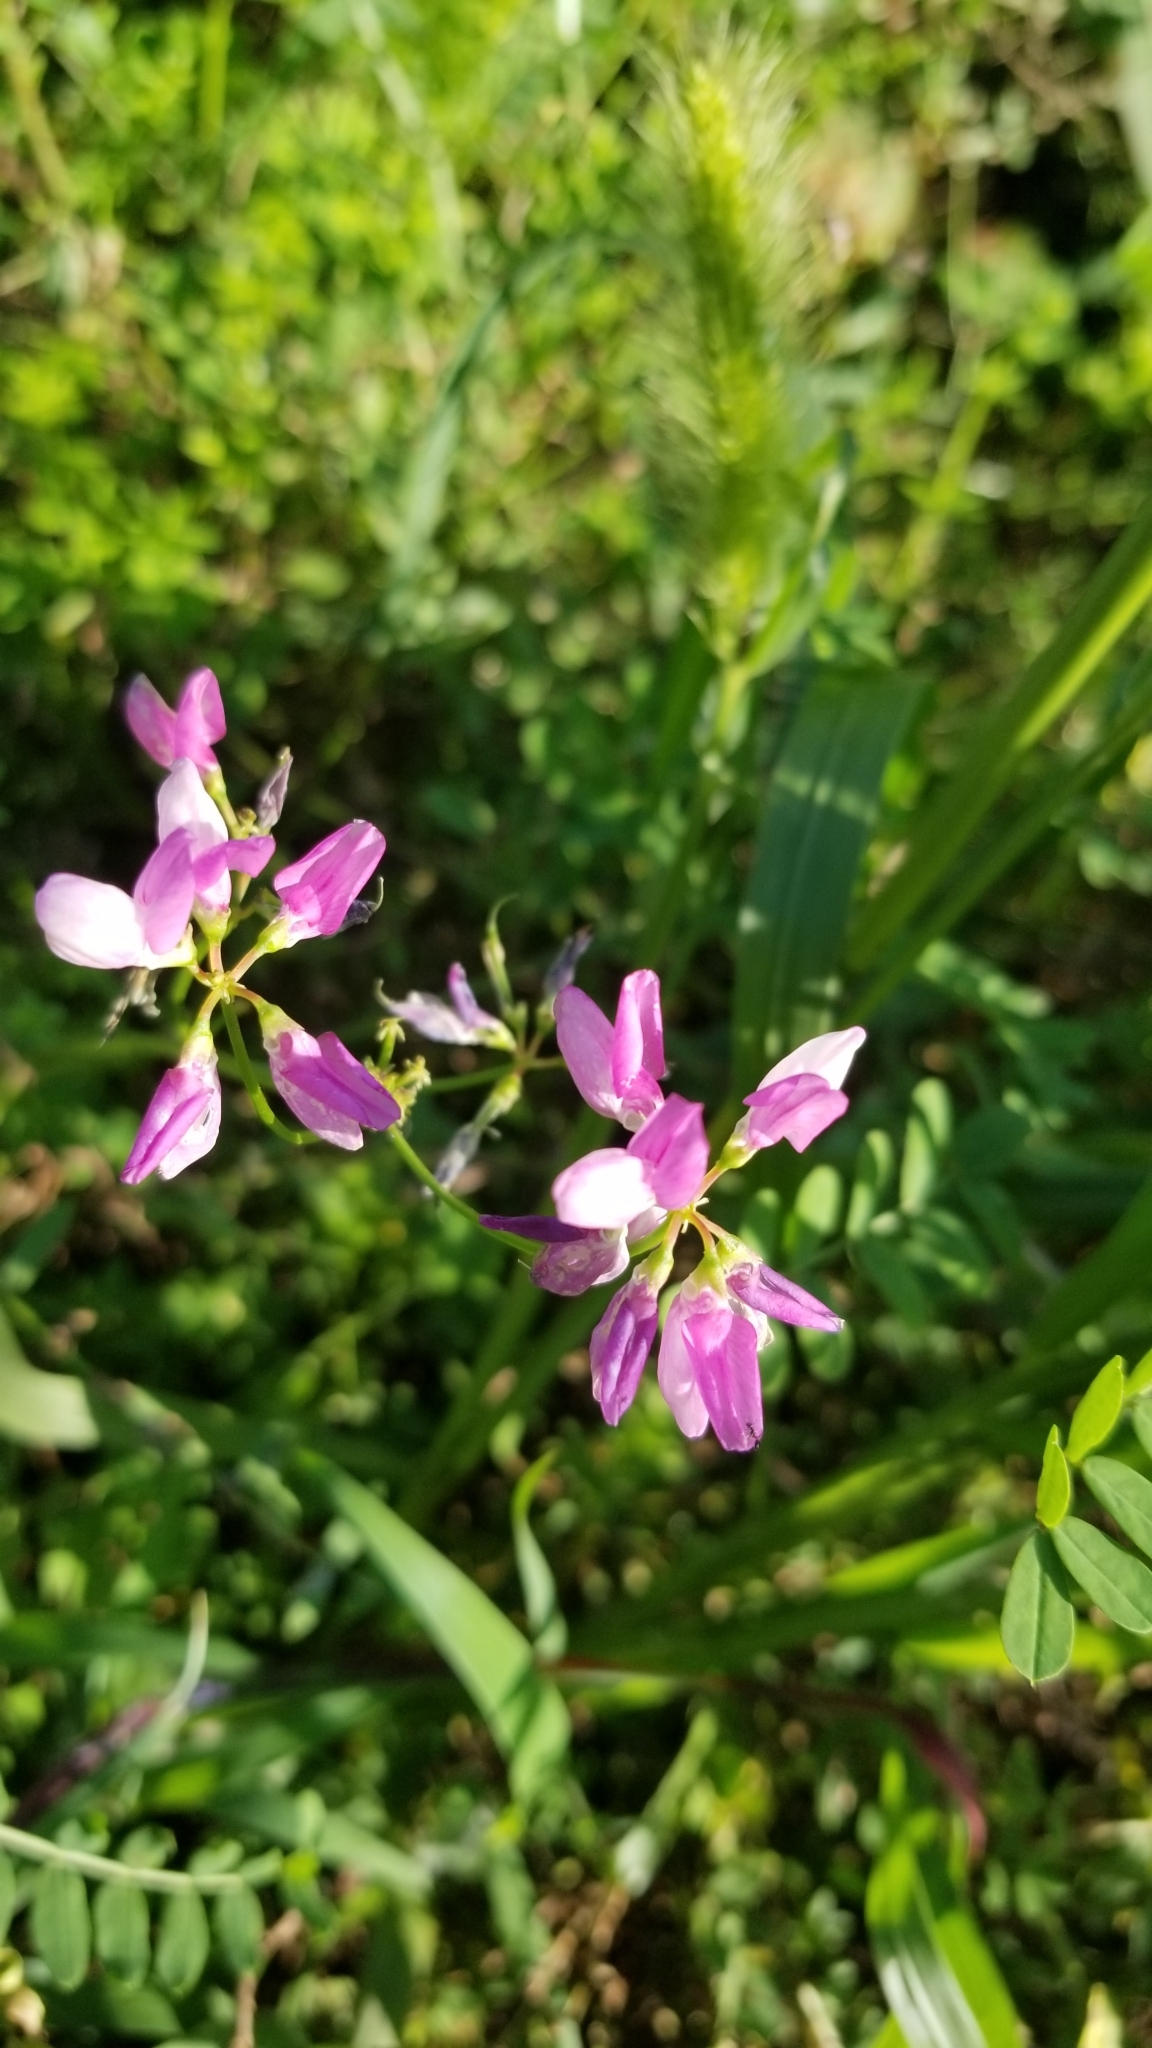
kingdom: Plantae
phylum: Tracheophyta
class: Magnoliopsida
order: Fabales
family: Fabaceae
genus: Coronilla
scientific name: Coronilla varia
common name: Crownvetch
